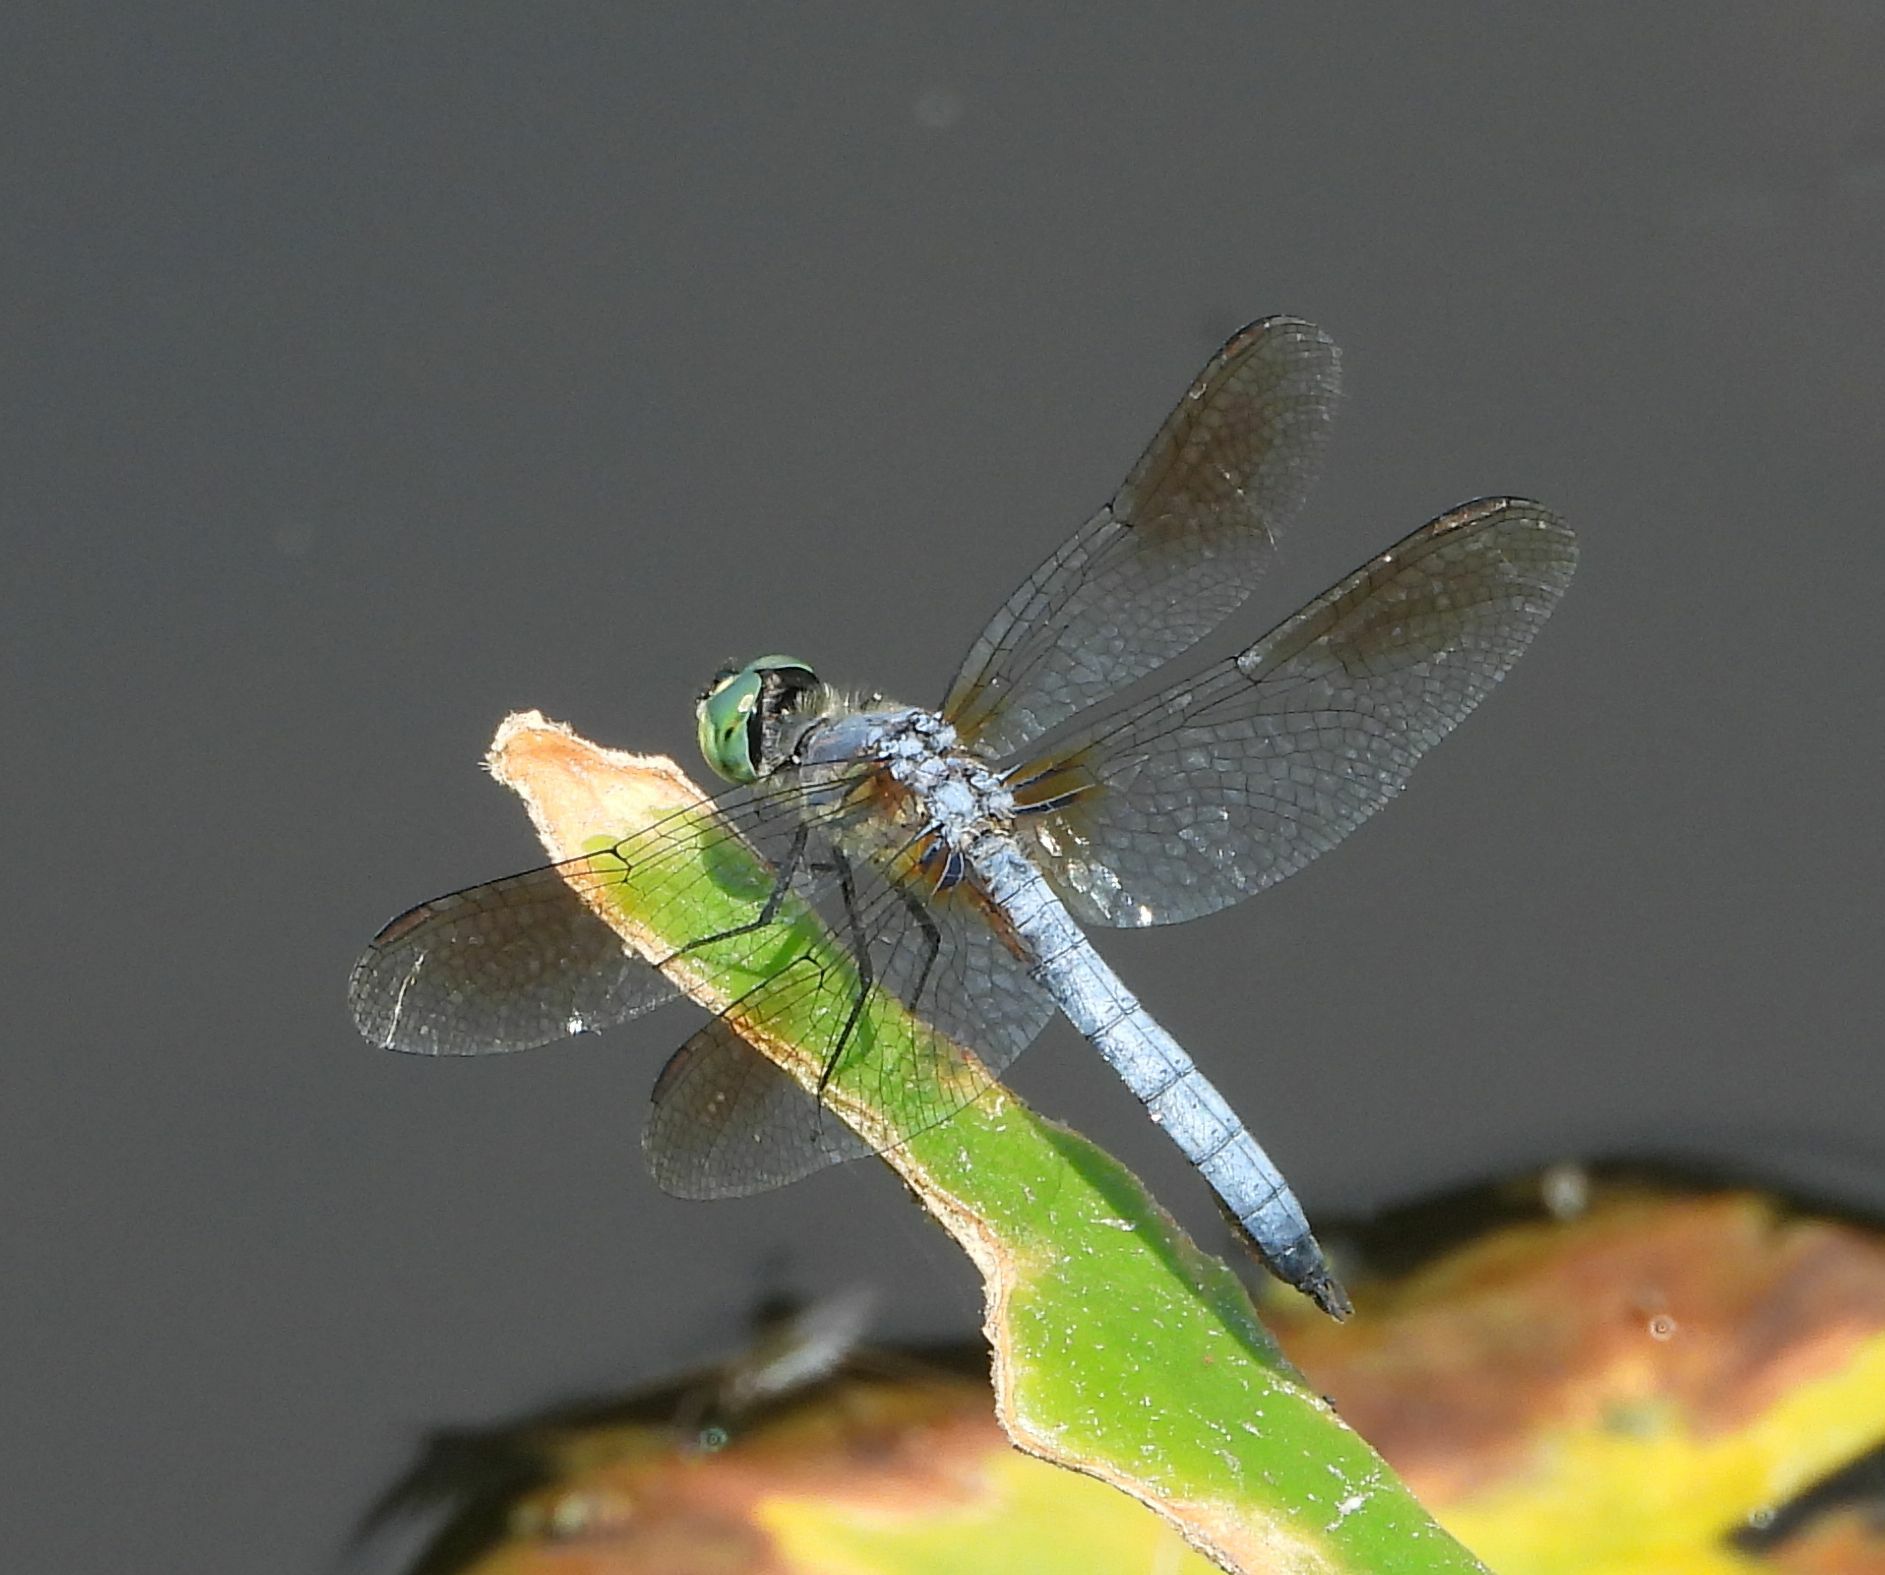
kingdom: Animalia
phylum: Arthropoda
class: Insecta
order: Odonata
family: Libellulidae
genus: Pachydiplax
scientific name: Pachydiplax longipennis
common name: Blue dasher
